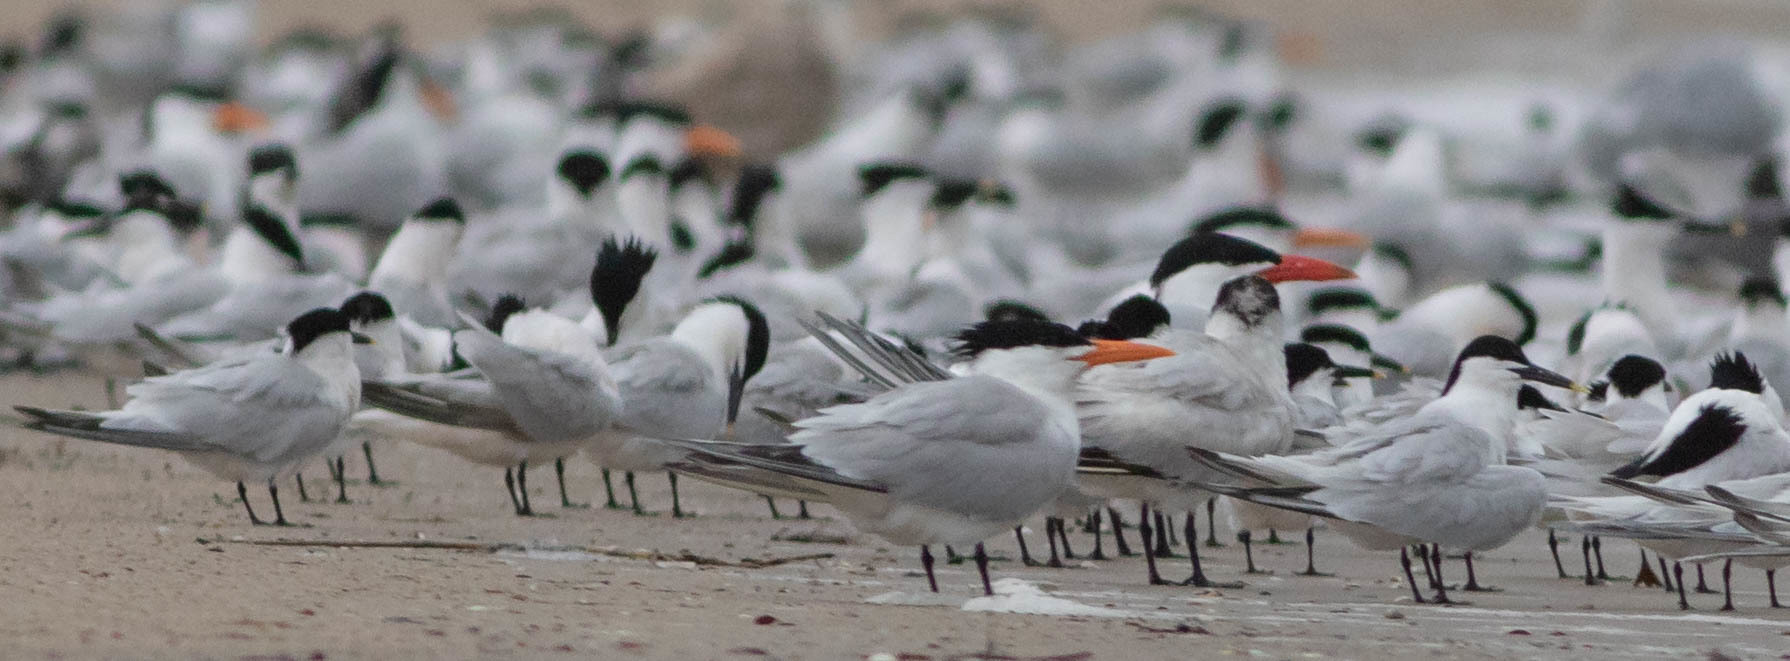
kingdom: Animalia
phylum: Chordata
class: Aves
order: Charadriiformes
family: Laridae
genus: Thalasseus
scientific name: Thalasseus maximus
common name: Royal tern
